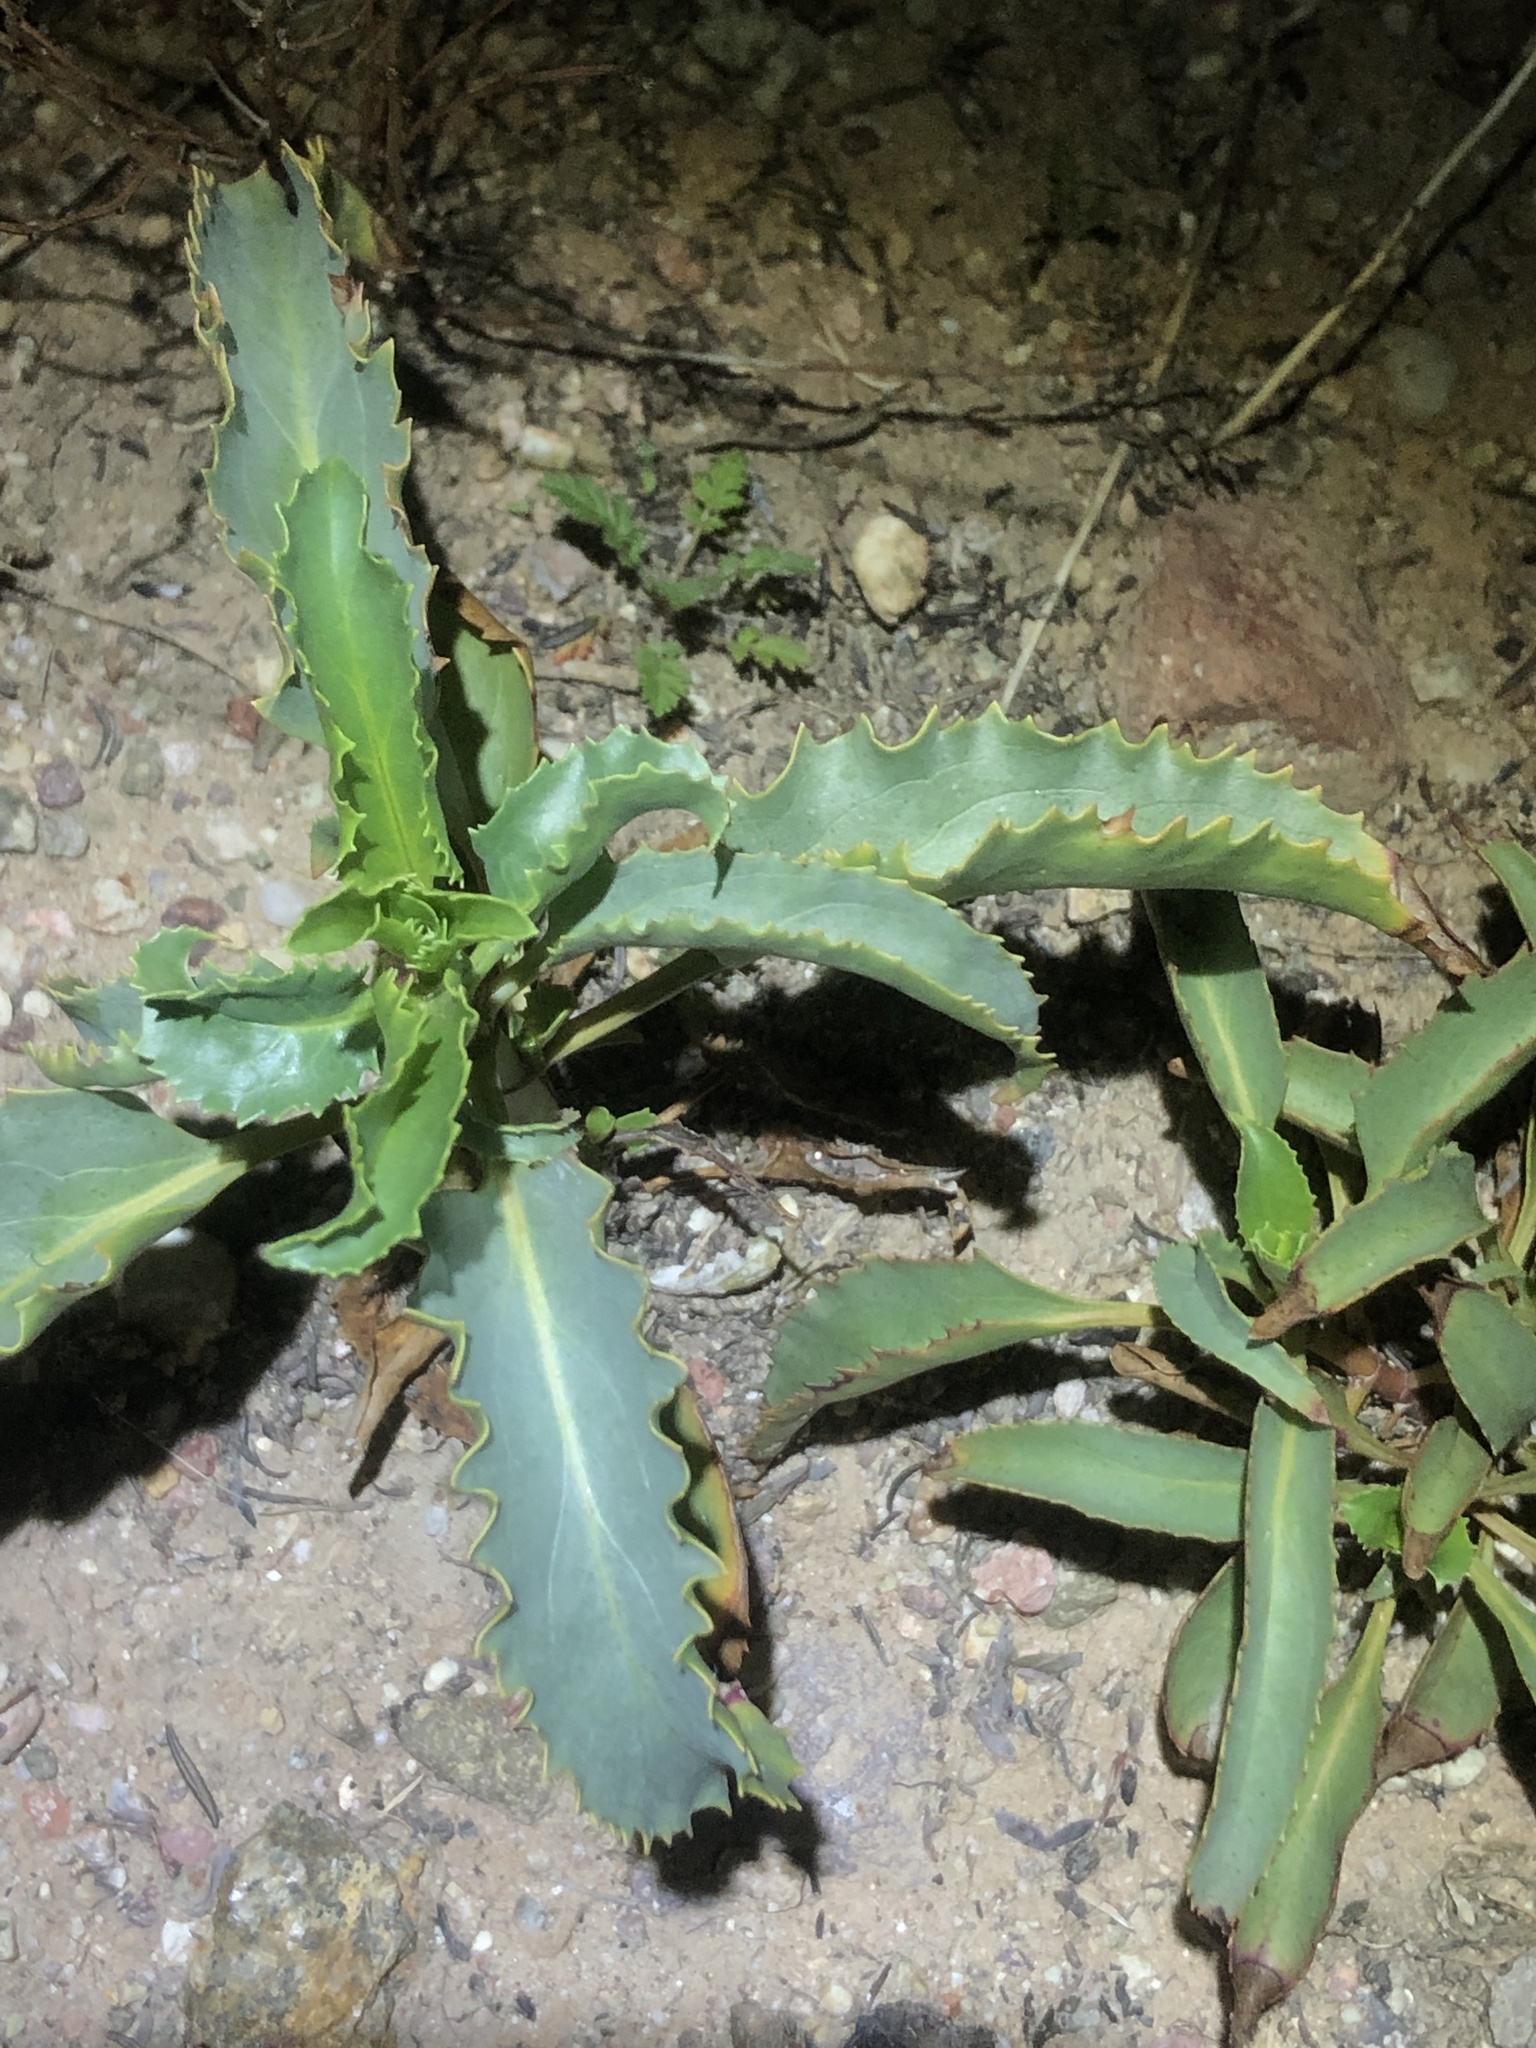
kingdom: Plantae
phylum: Tracheophyta
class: Magnoliopsida
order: Lamiales
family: Plantaginaceae
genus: Penstemon
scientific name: Penstemon grinnellii
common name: Grinnell's beardtongue
